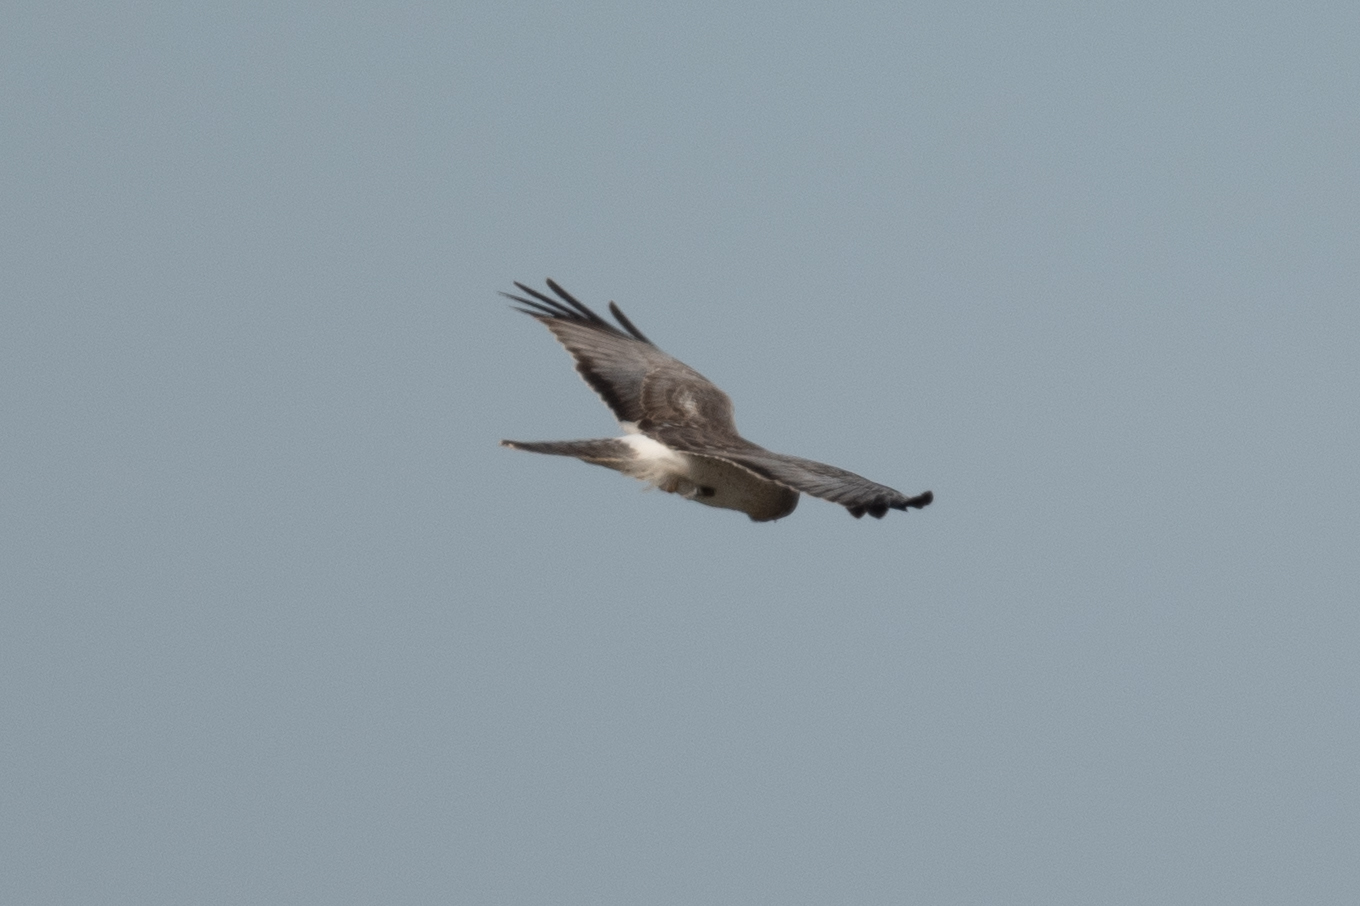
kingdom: Animalia
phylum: Chordata
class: Aves
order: Accipitriformes
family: Accipitridae
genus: Circus
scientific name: Circus cyaneus
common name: Hen harrier
